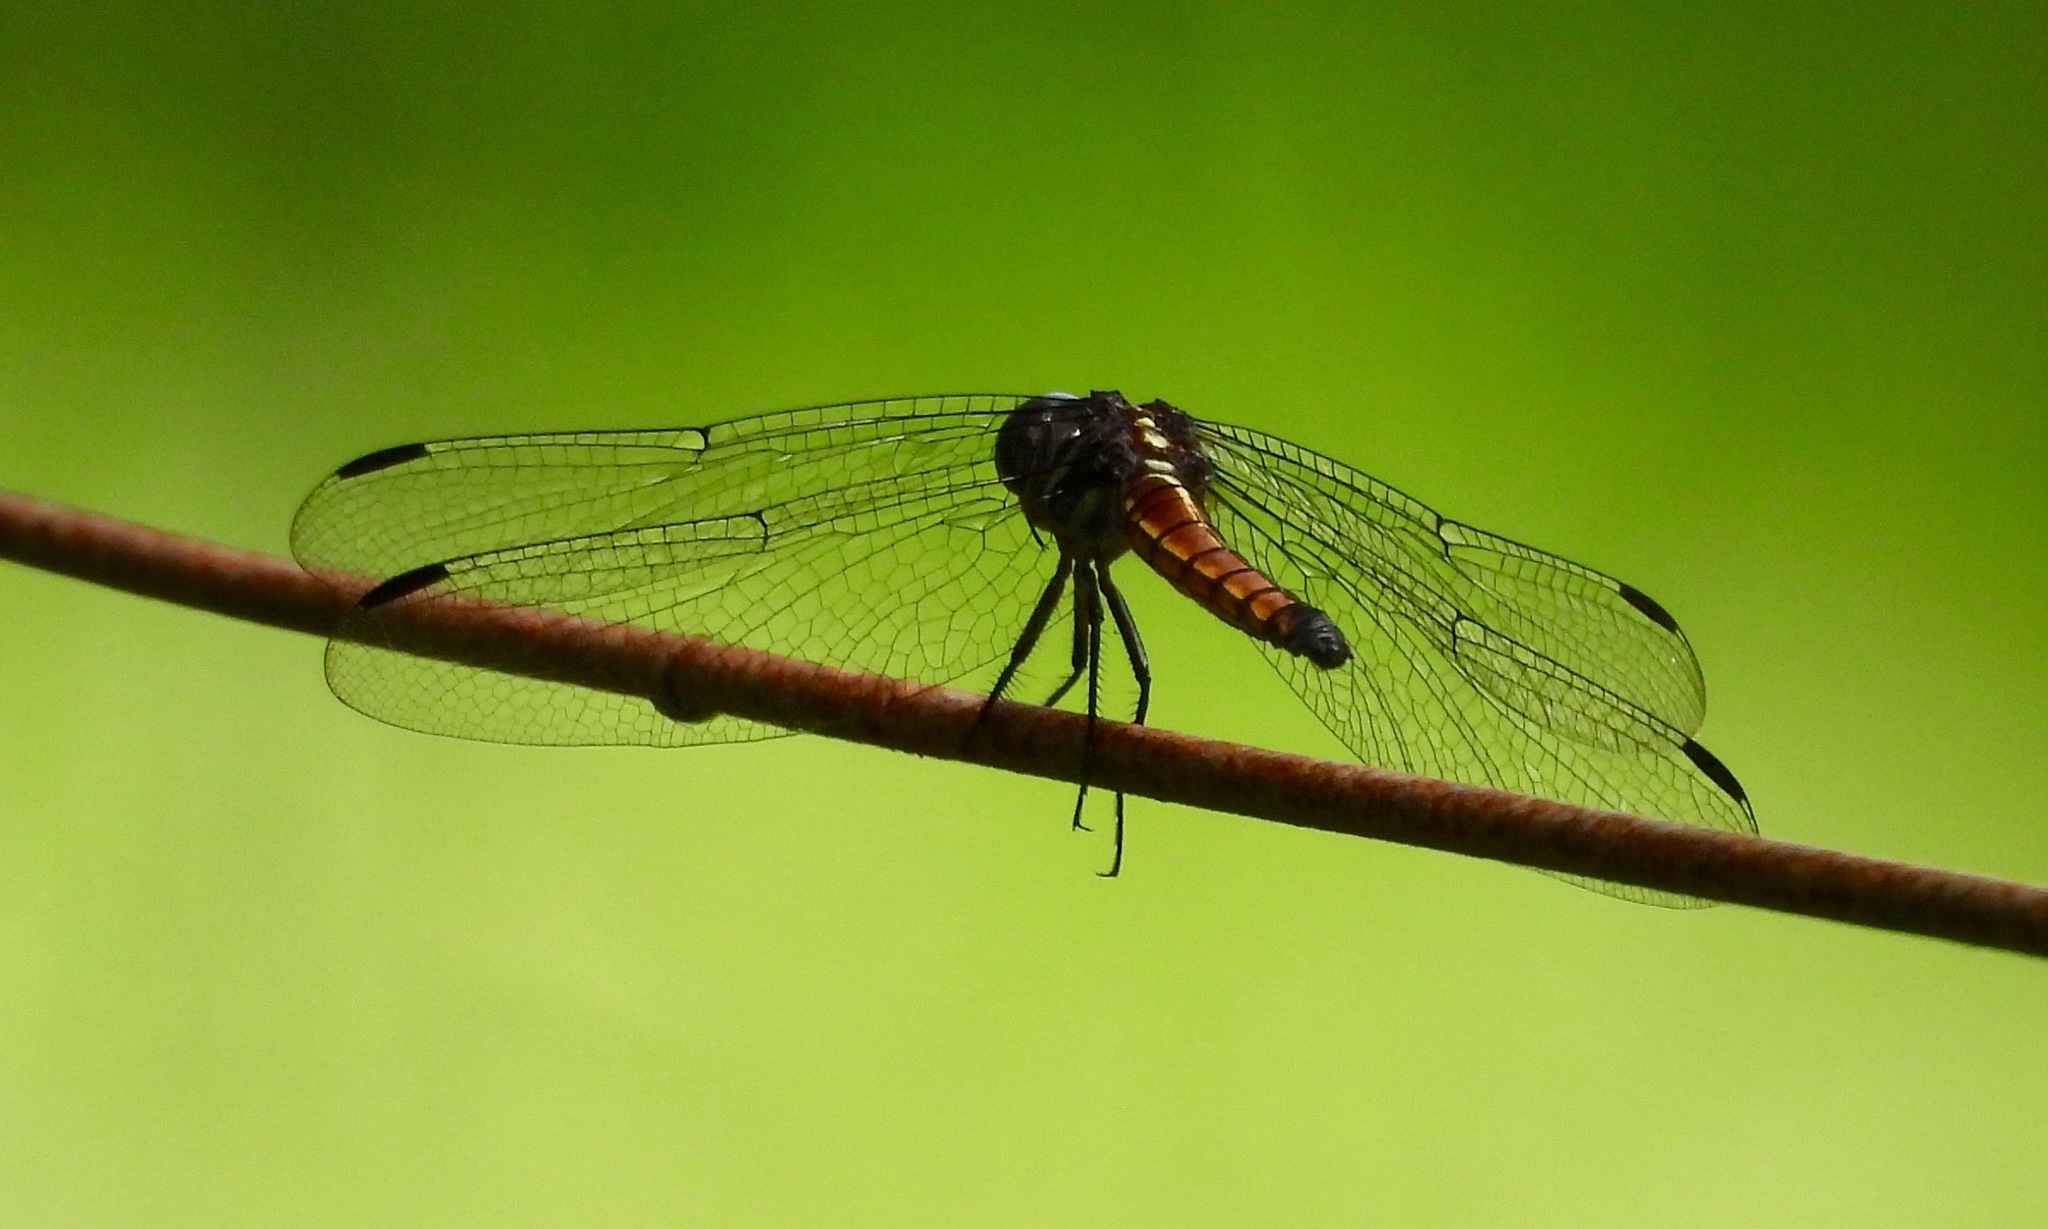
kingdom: Animalia
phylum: Arthropoda
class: Insecta
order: Odonata
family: Libellulidae
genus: Cannaphila
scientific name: Cannaphila vibex
